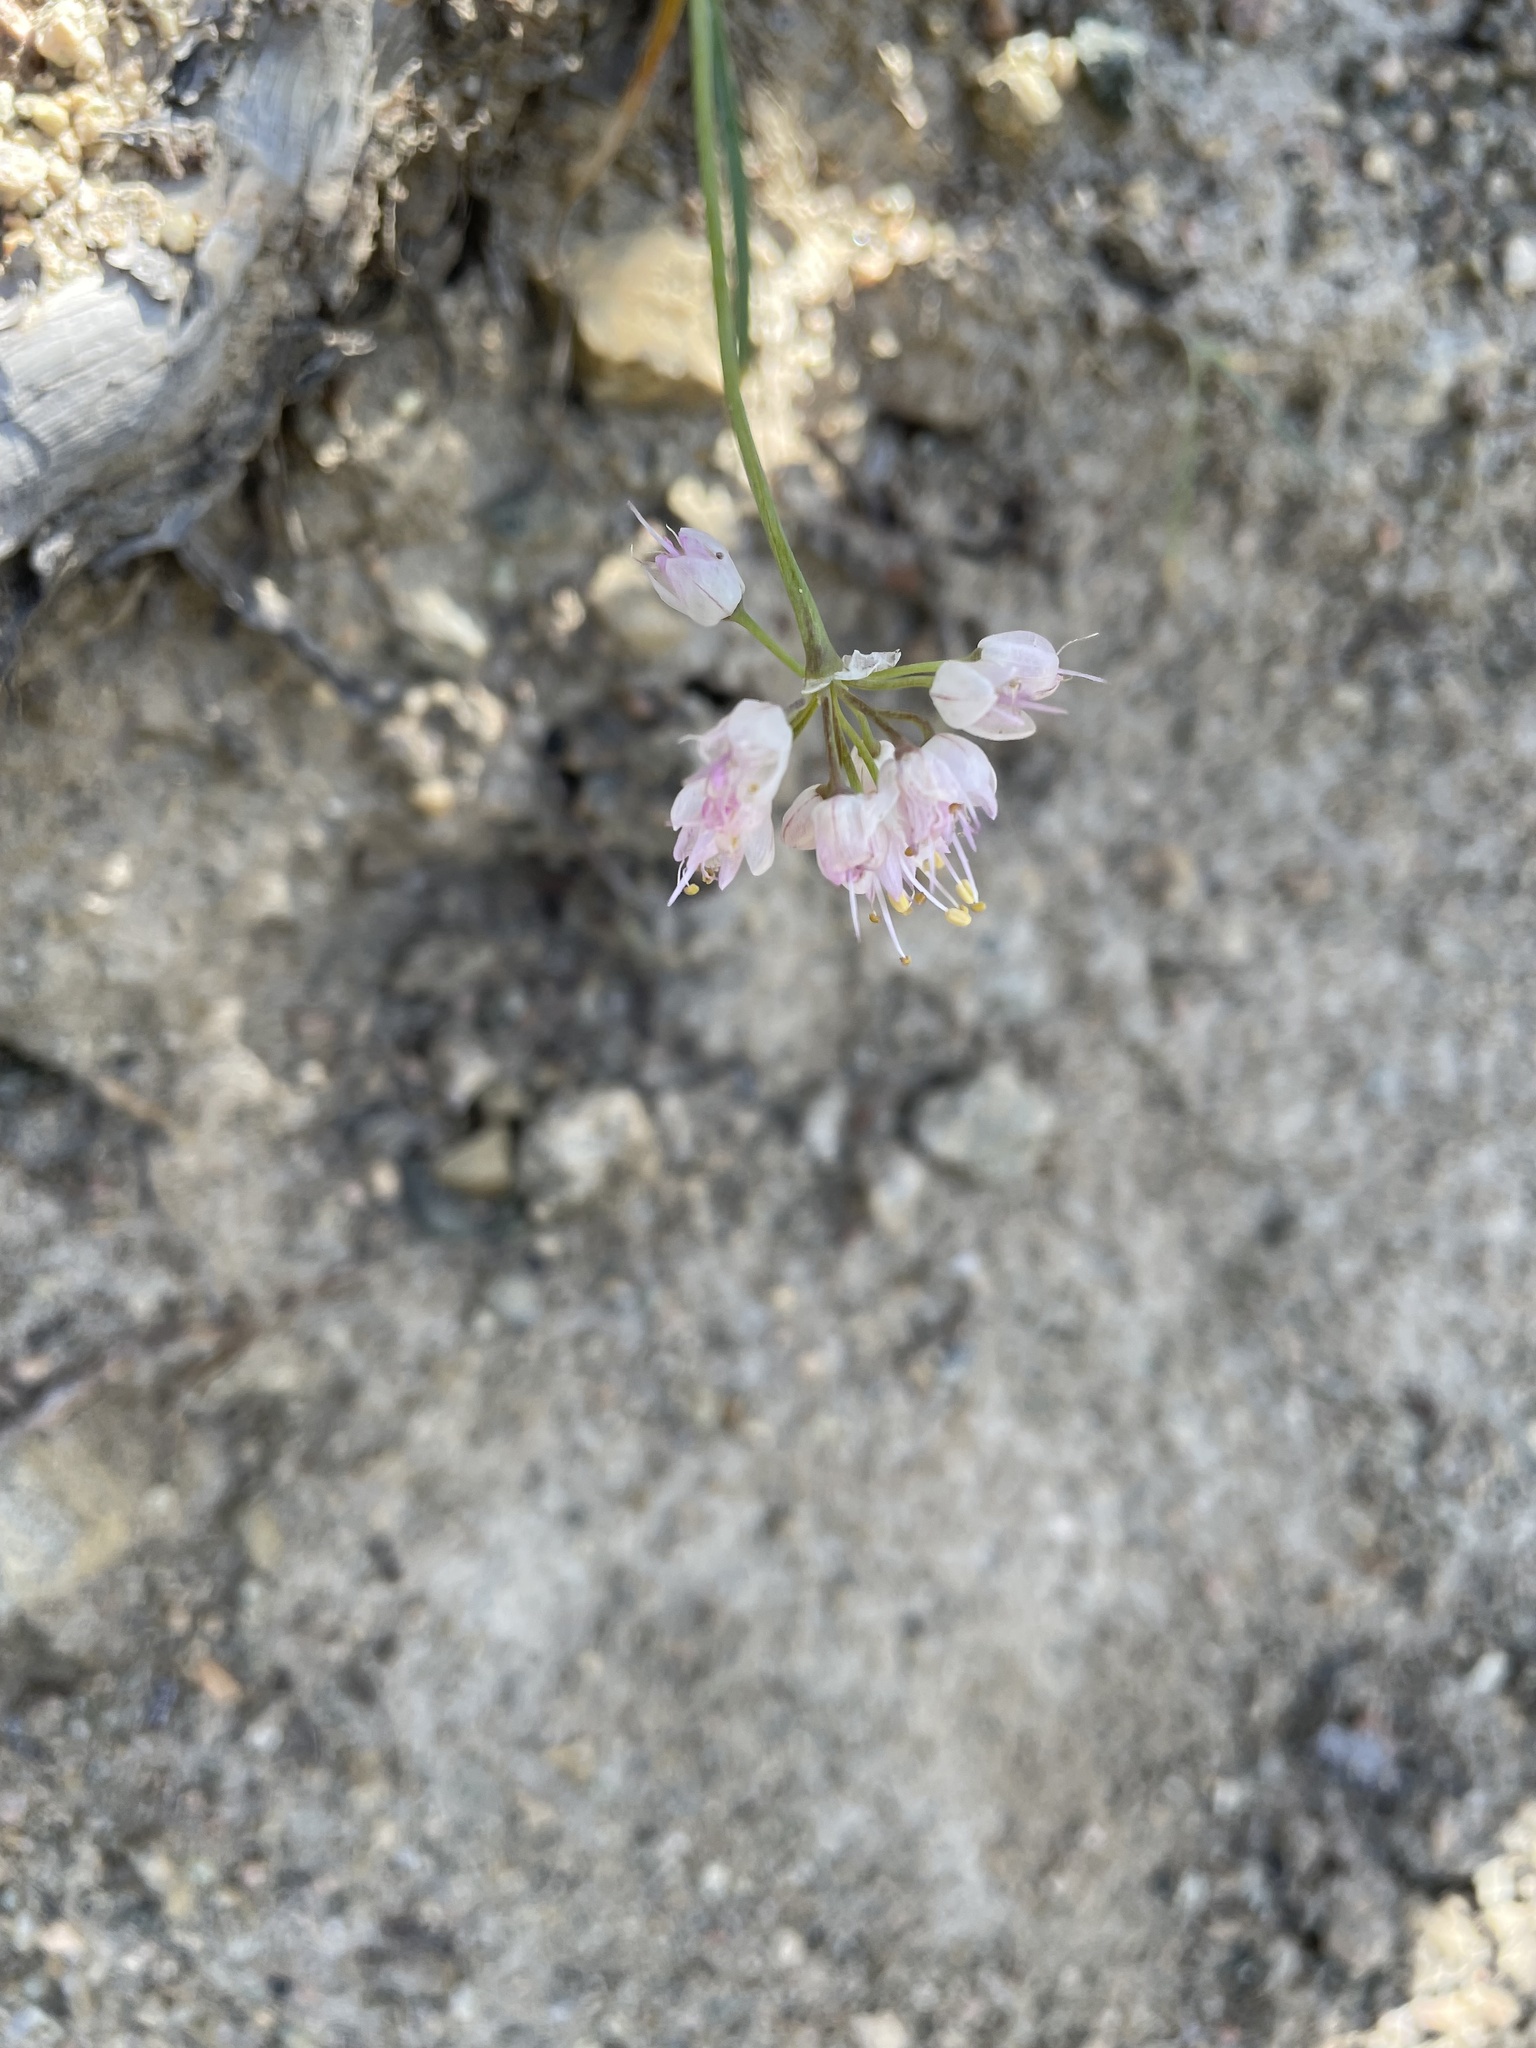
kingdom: Plantae
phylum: Tracheophyta
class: Liliopsida
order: Asparagales
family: Amaryllidaceae
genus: Allium
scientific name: Allium cernuum
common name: Nodding onion
